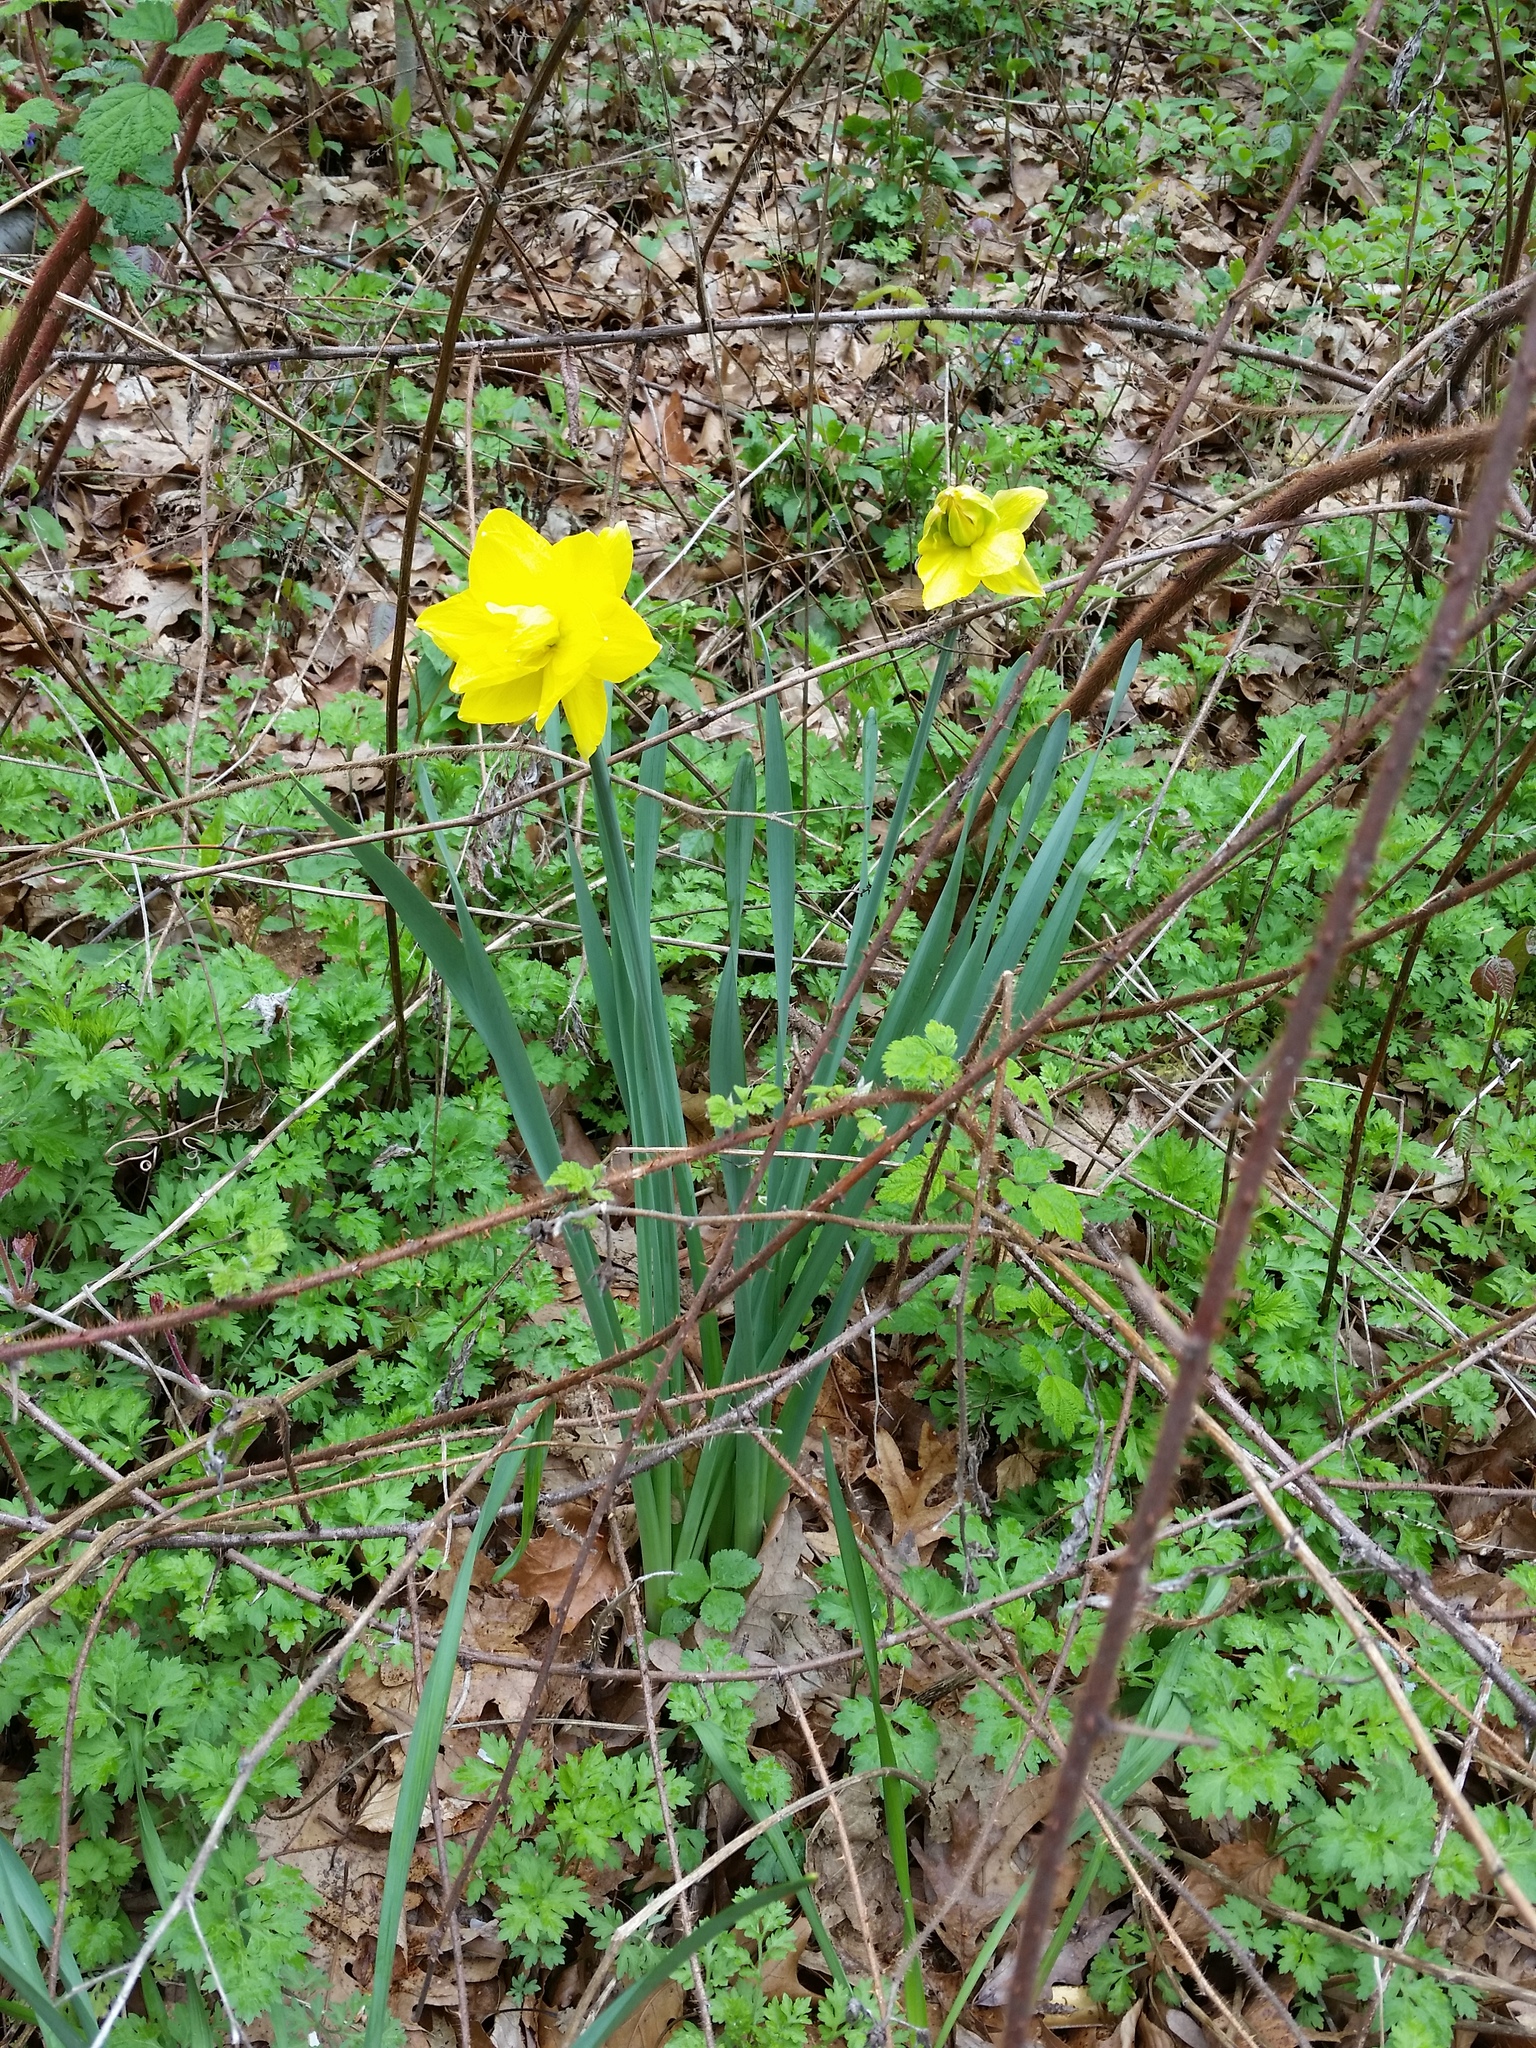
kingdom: Plantae
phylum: Tracheophyta
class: Liliopsida
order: Asparagales
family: Amaryllidaceae
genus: Narcissus
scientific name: Narcissus pseudonarcissus
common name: Daffodil
